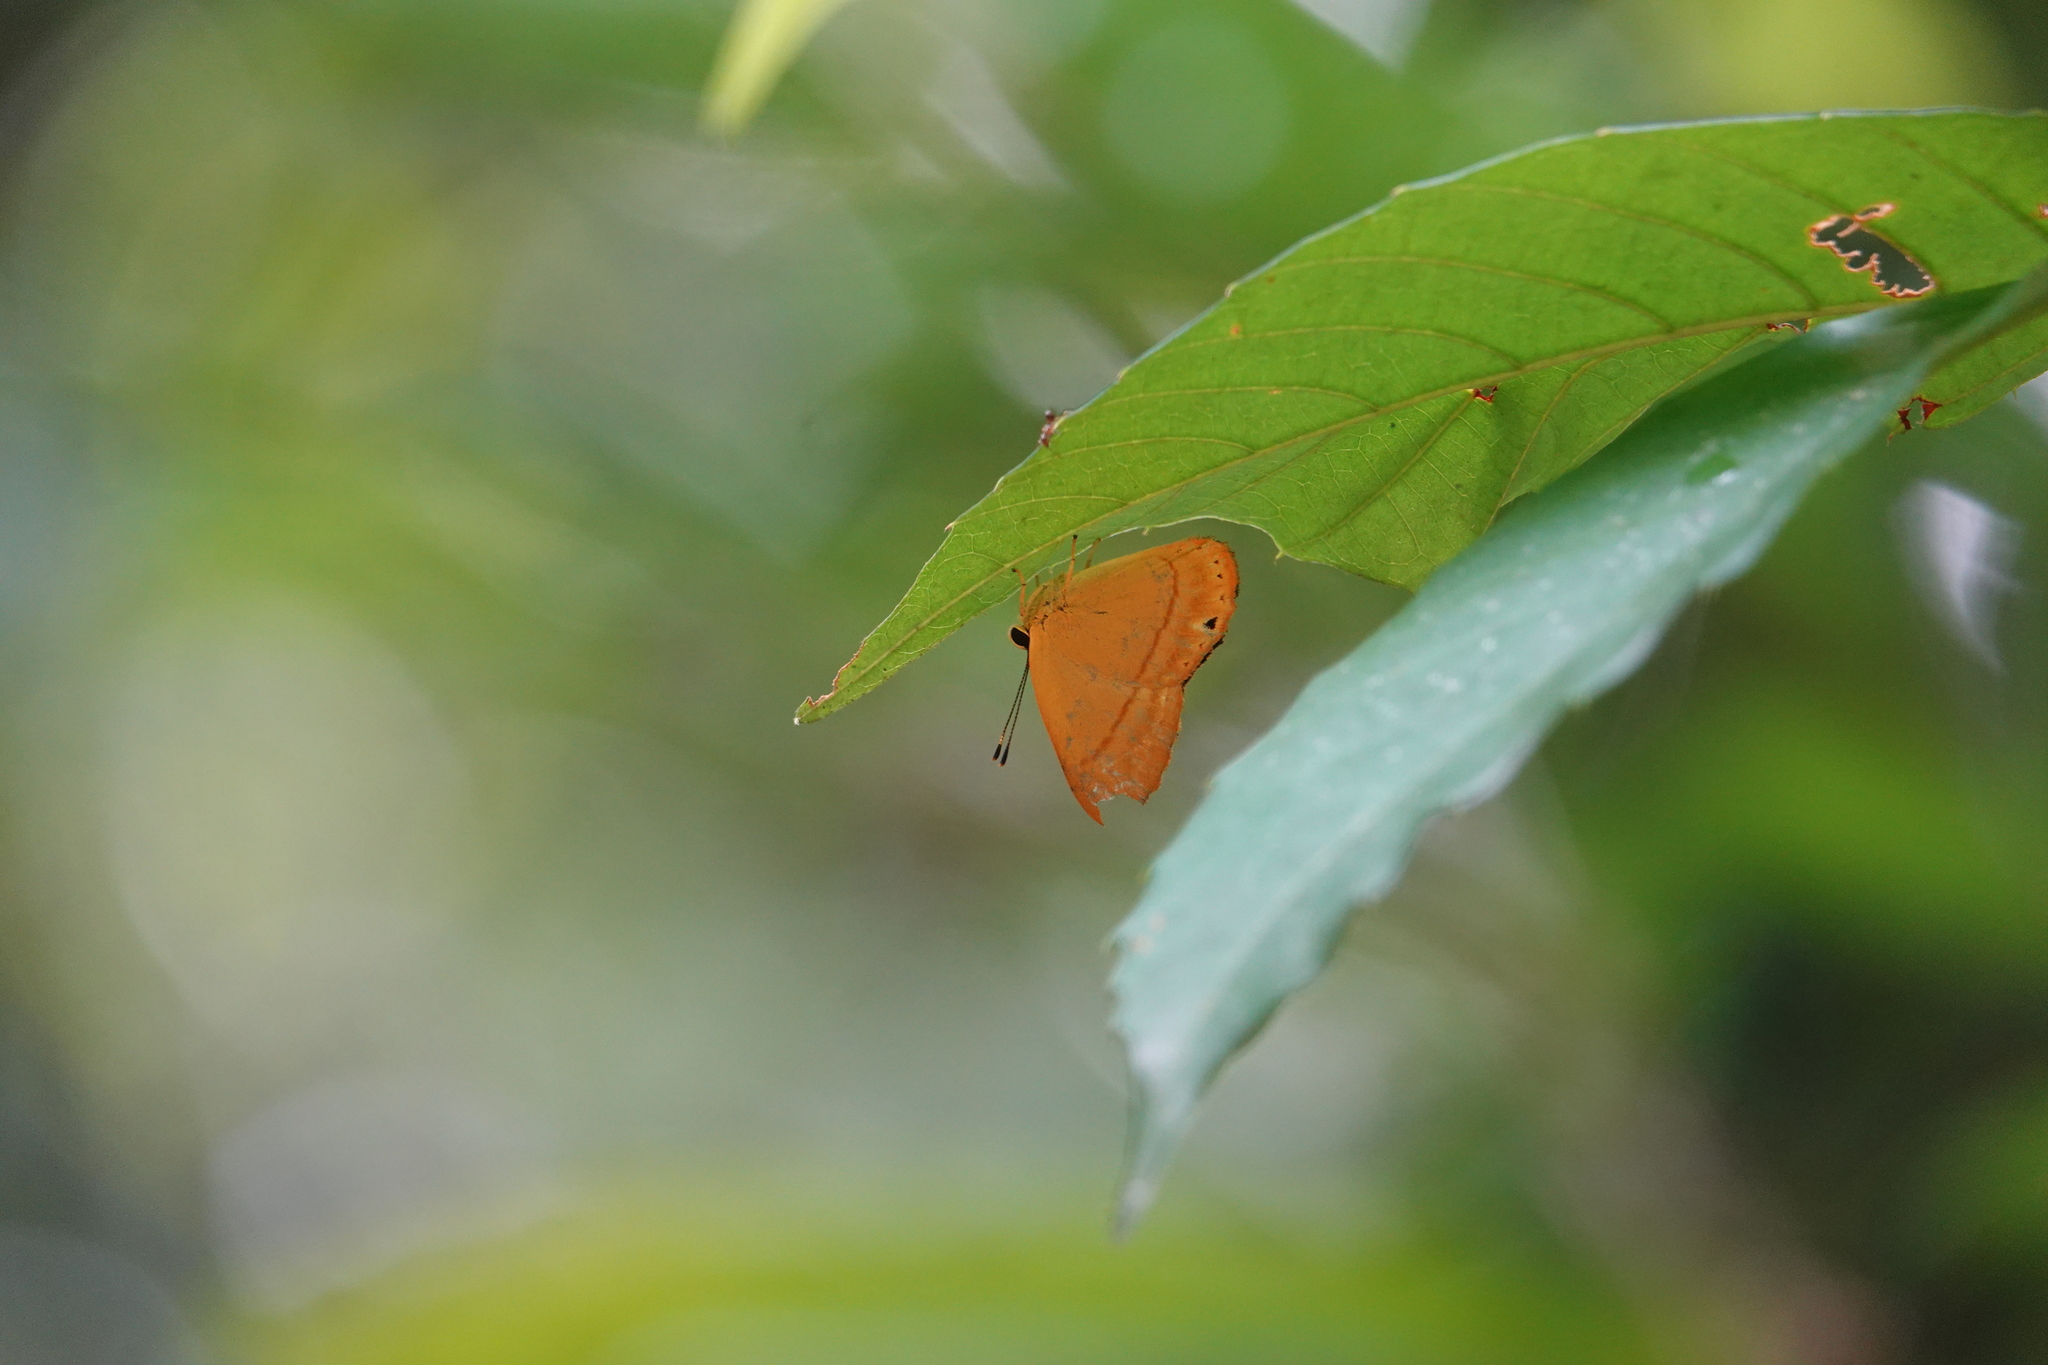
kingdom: Animalia
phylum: Arthropoda
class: Insecta
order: Hemiptera
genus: Marmessus
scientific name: Marmessus
